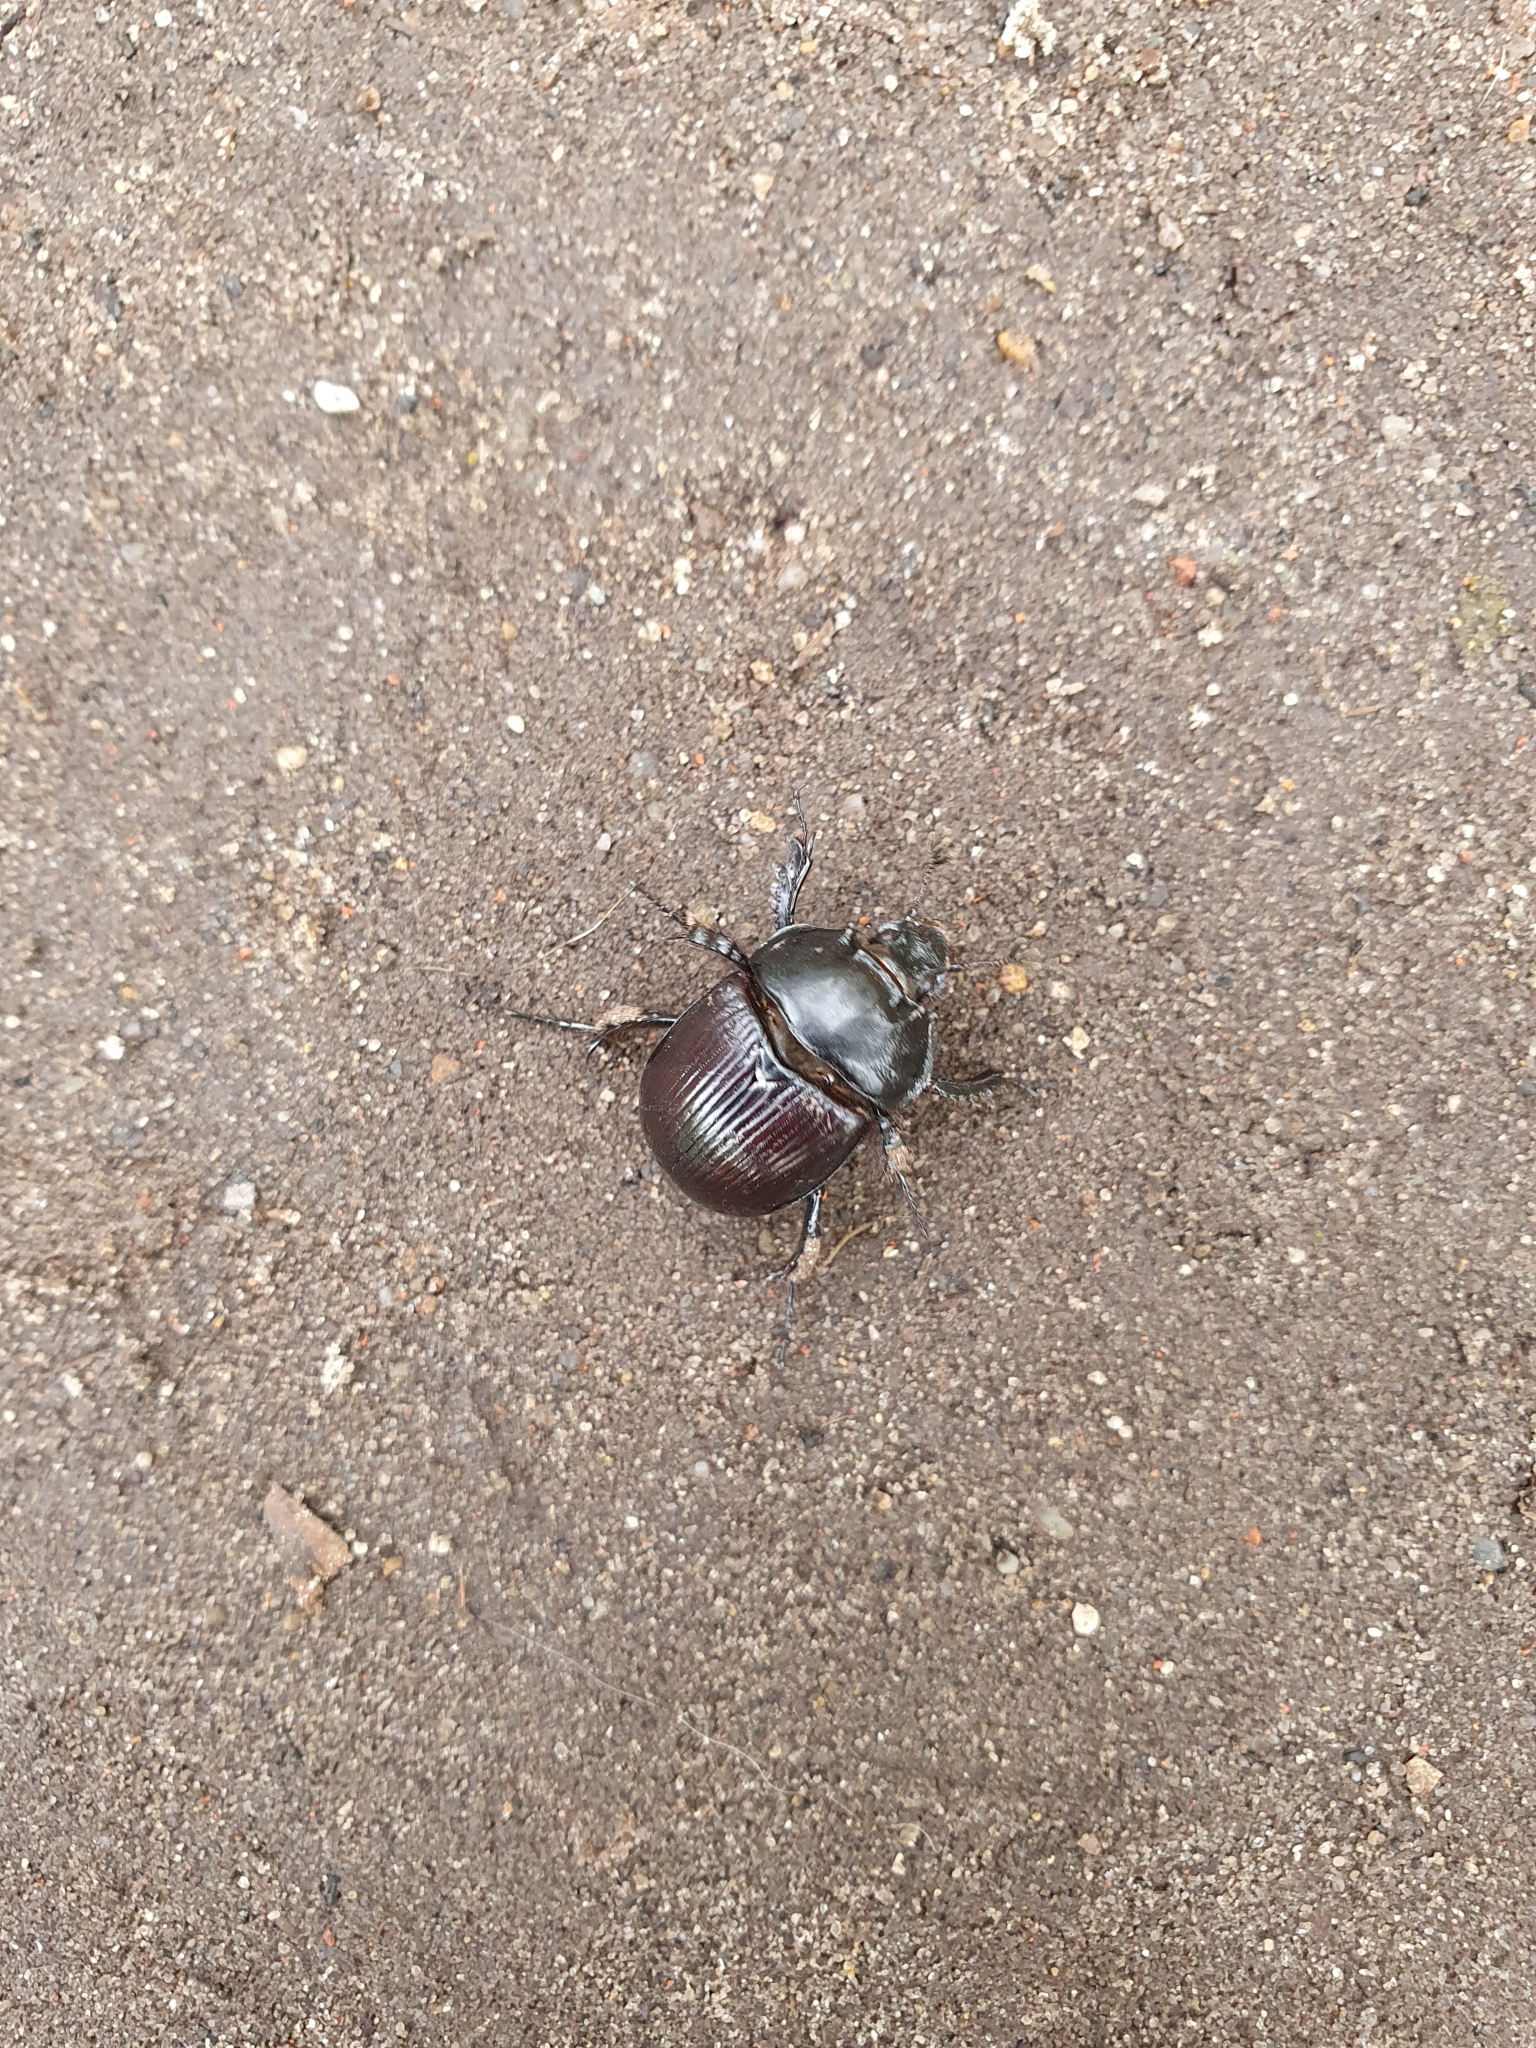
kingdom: Animalia
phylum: Arthropoda
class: Insecta
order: Coleoptera
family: Geotrupidae
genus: Typhaeus
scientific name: Typhaeus typhoeus
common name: Minotaur beetle
